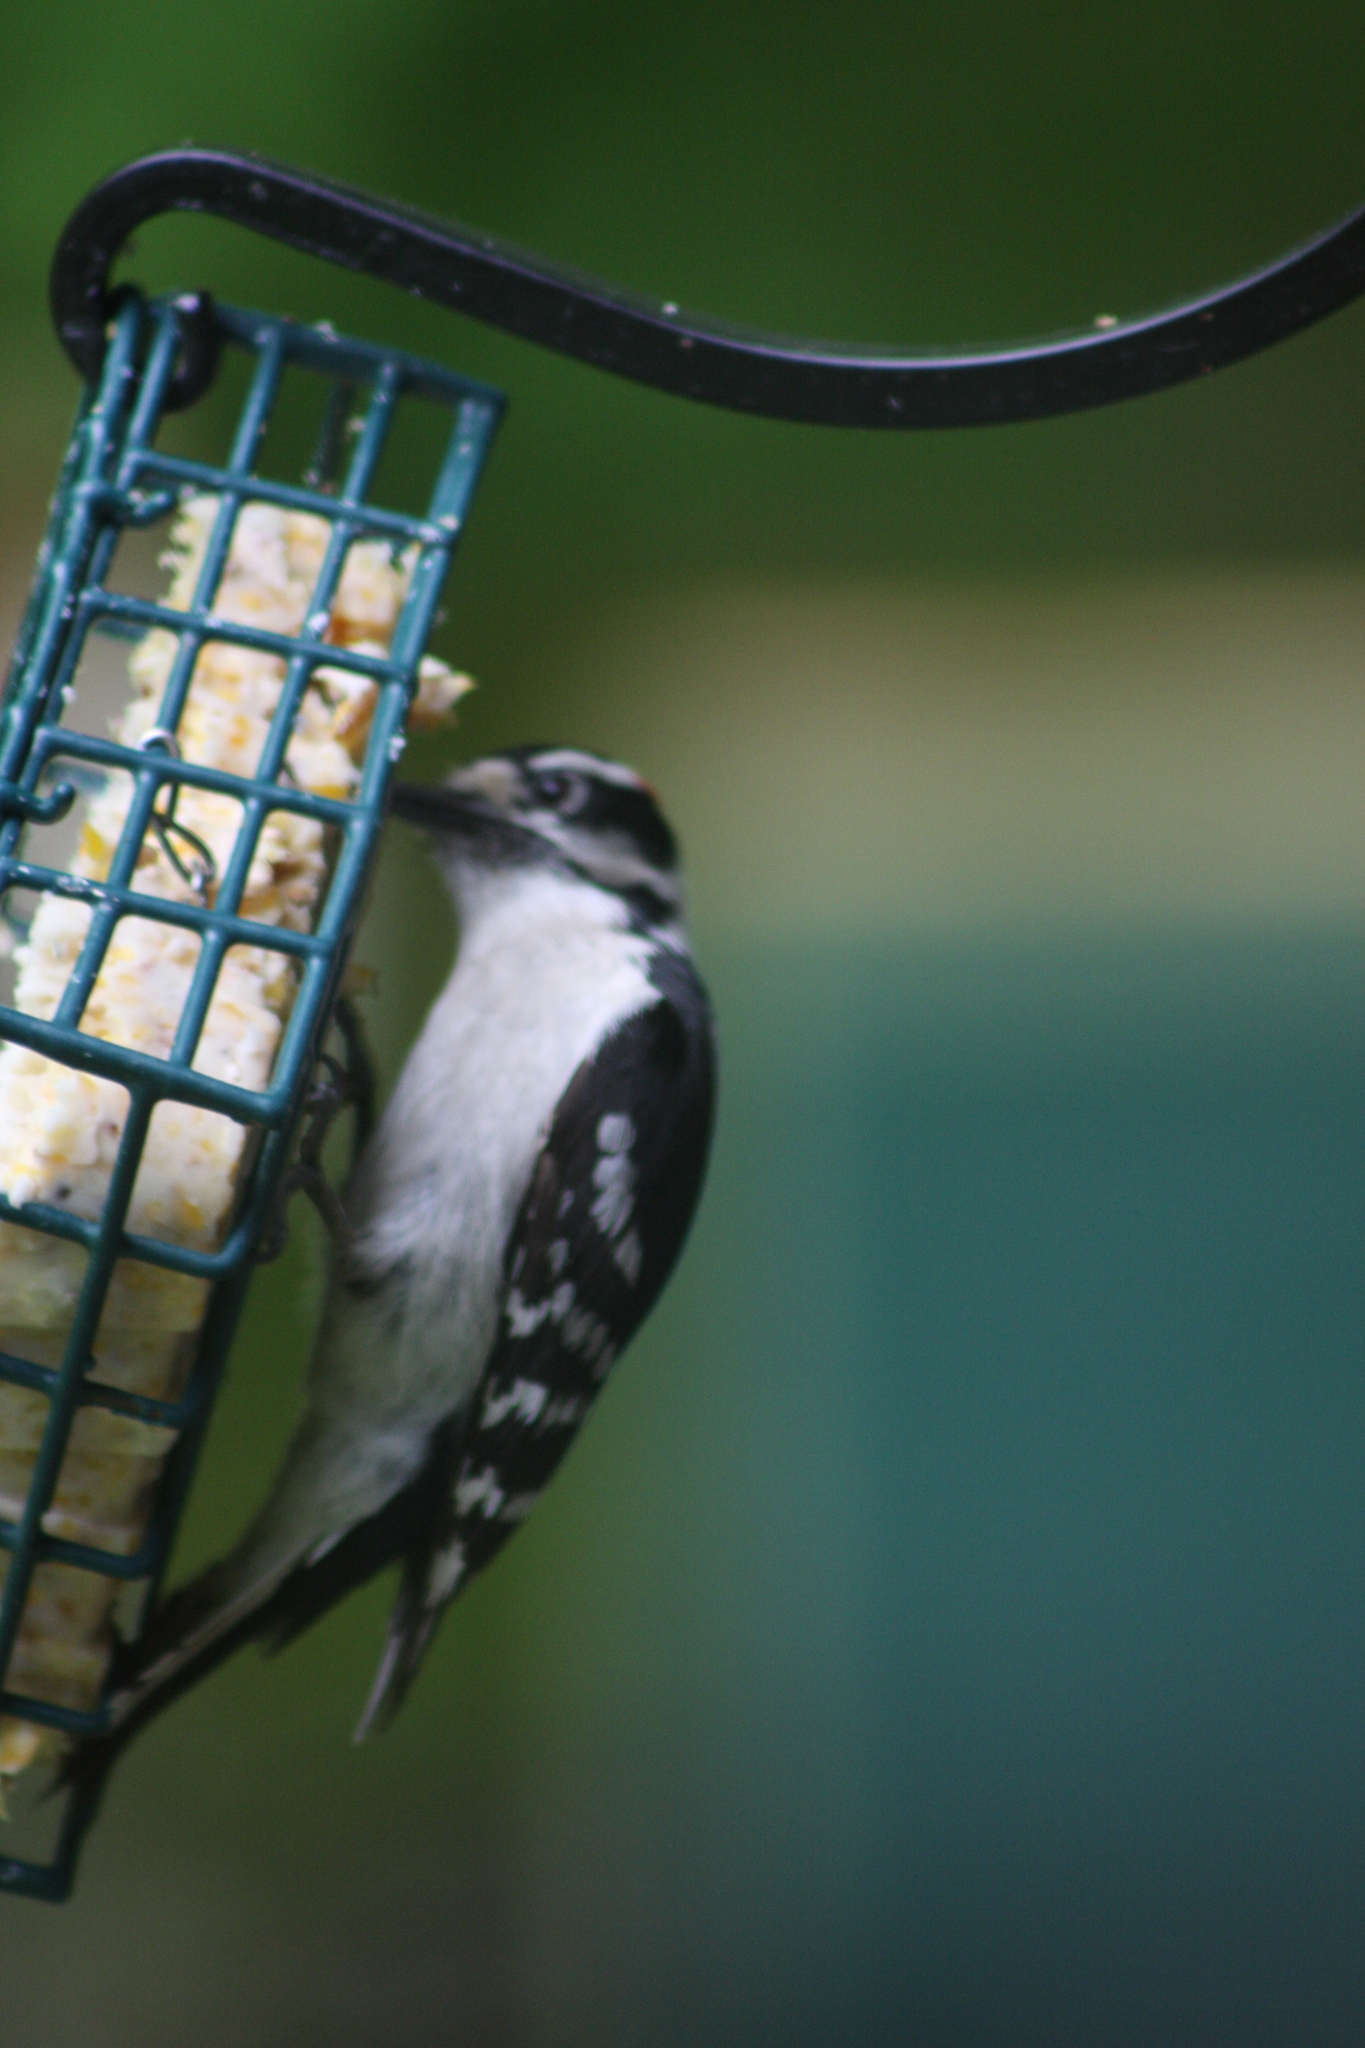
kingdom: Animalia
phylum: Chordata
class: Aves
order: Piciformes
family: Picidae
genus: Dryobates
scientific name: Dryobates pubescens
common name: Downy woodpecker
